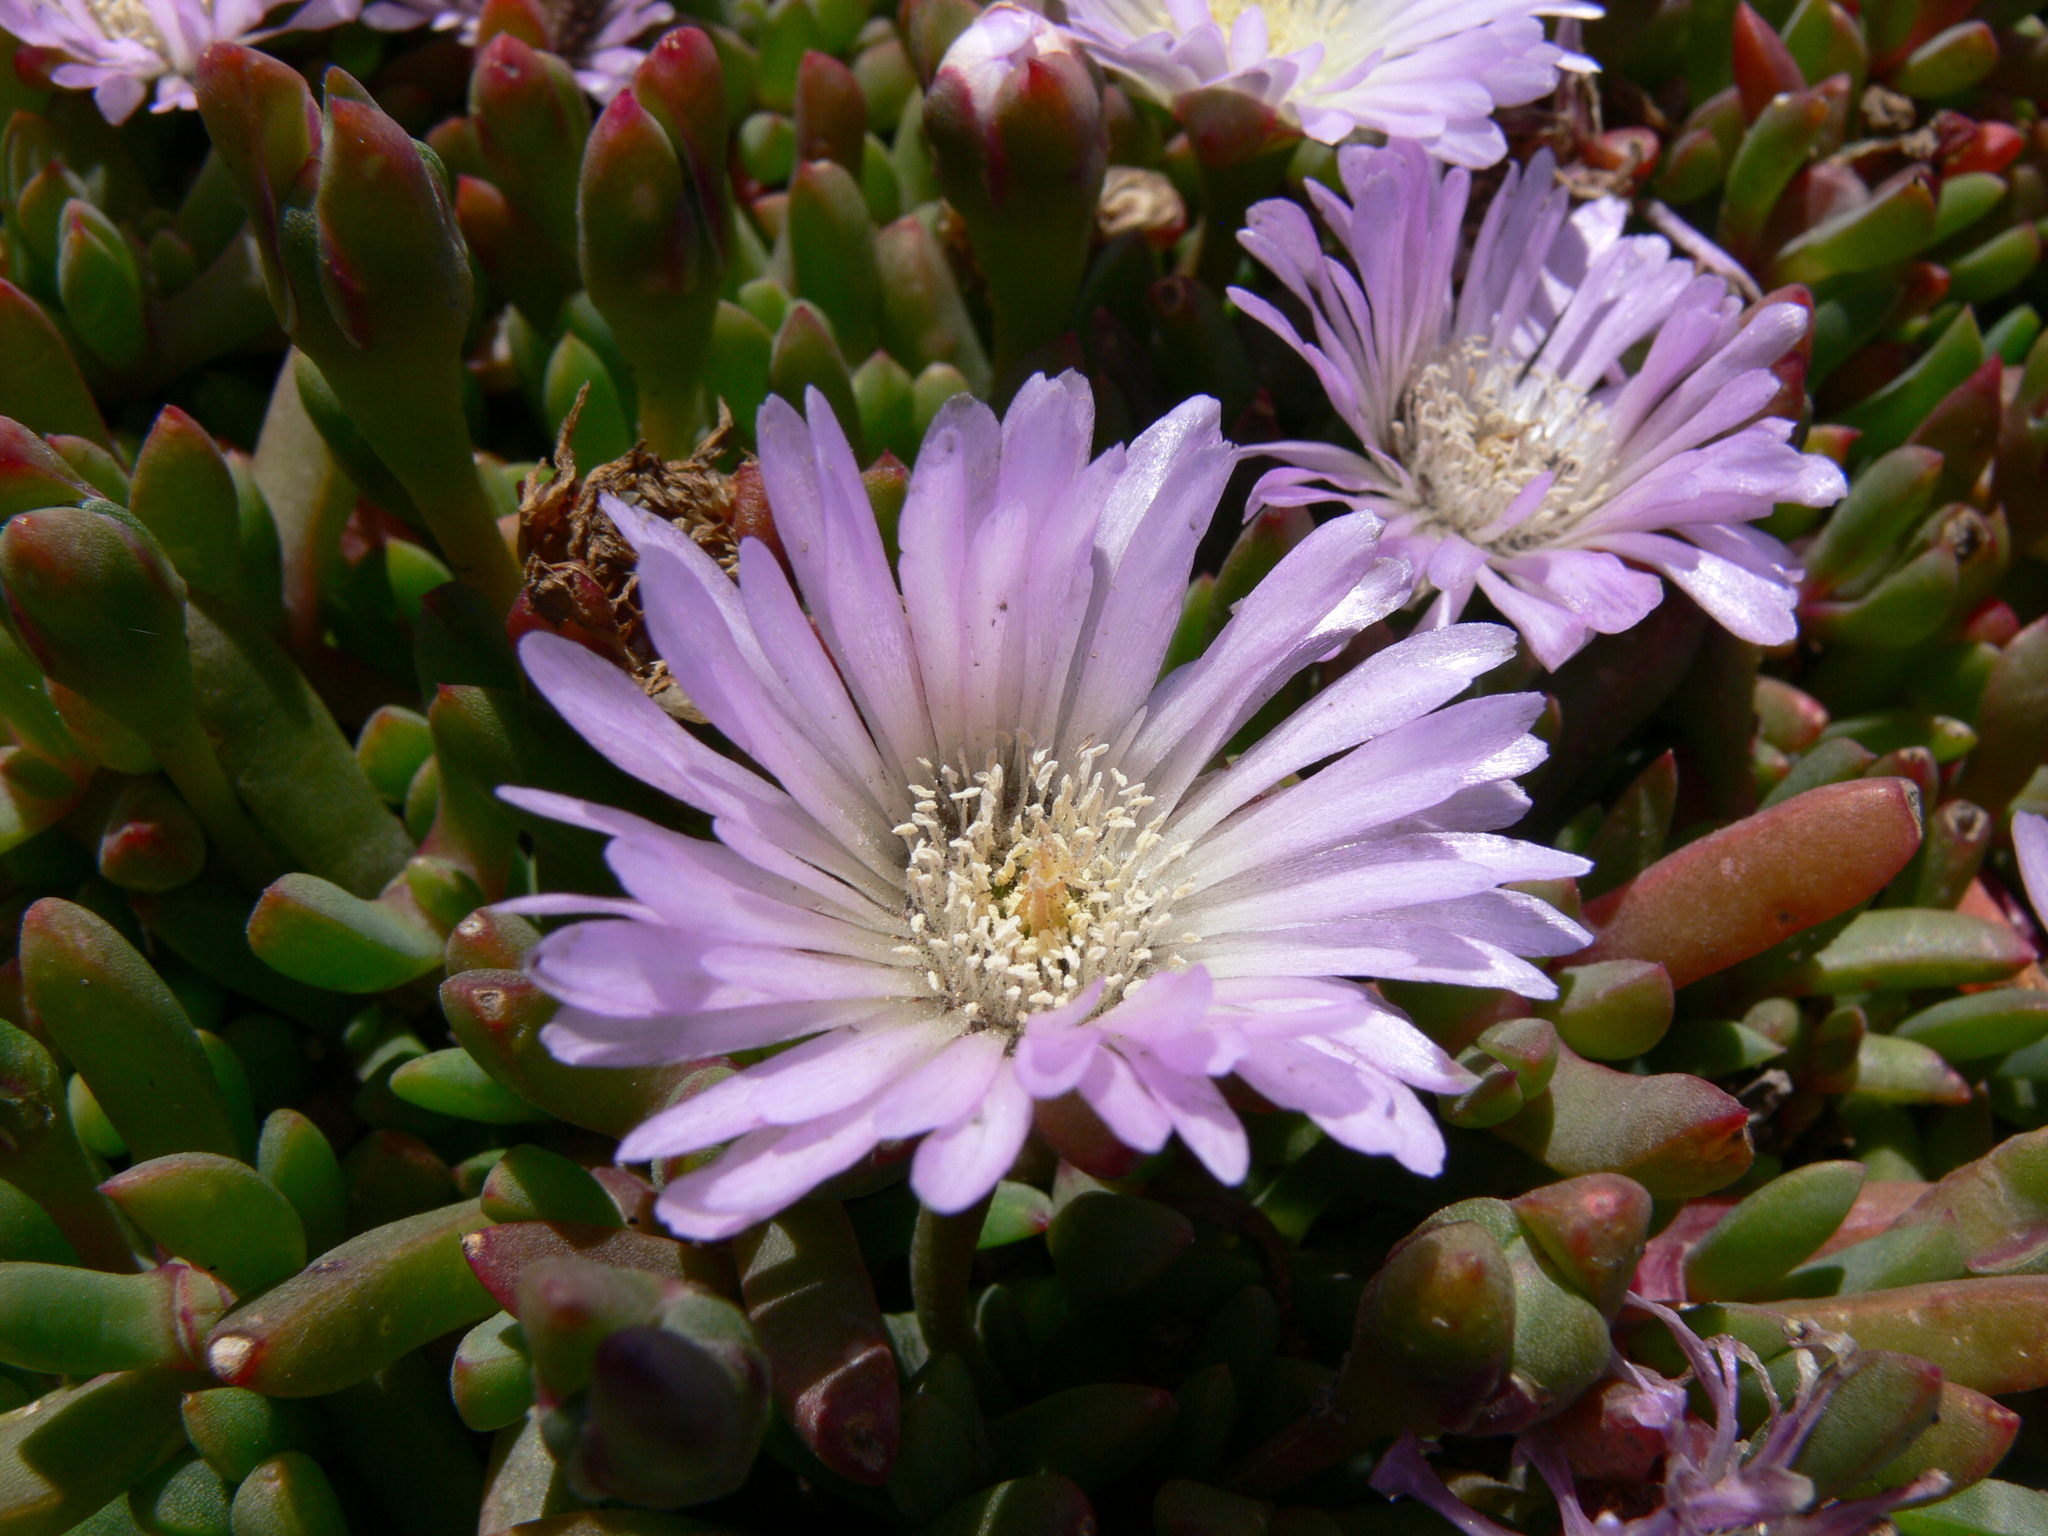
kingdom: Plantae
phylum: Tracheophyta
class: Magnoliopsida
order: Caryophyllales
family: Aizoaceae
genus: Disphyma
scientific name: Disphyma australe
